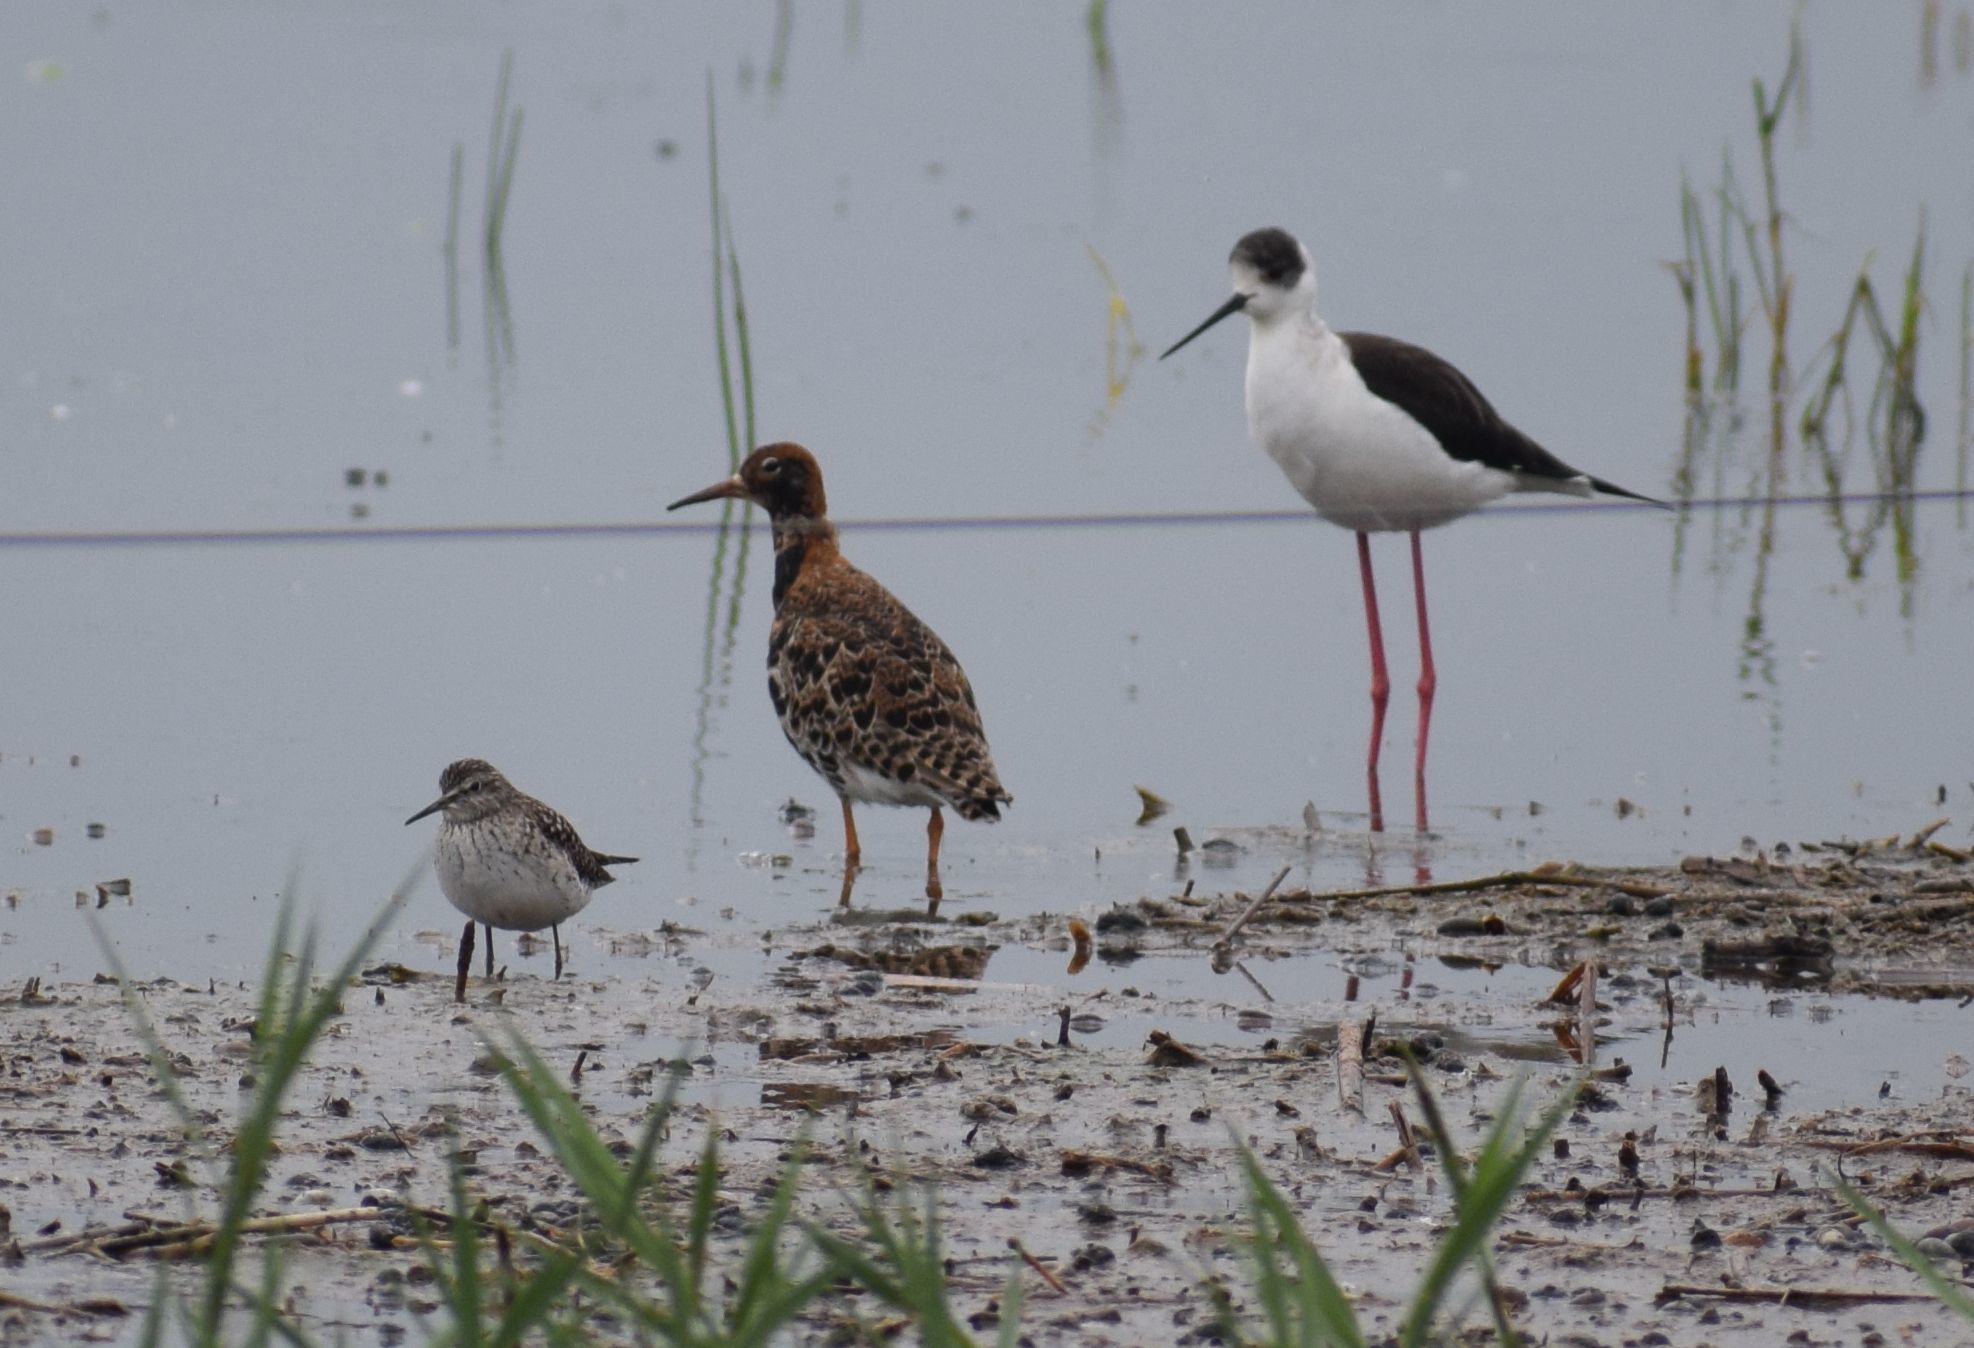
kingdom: Animalia
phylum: Chordata
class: Aves
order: Charadriiformes
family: Scolopacidae
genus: Calidris
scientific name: Calidris pugnax
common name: Ruff
